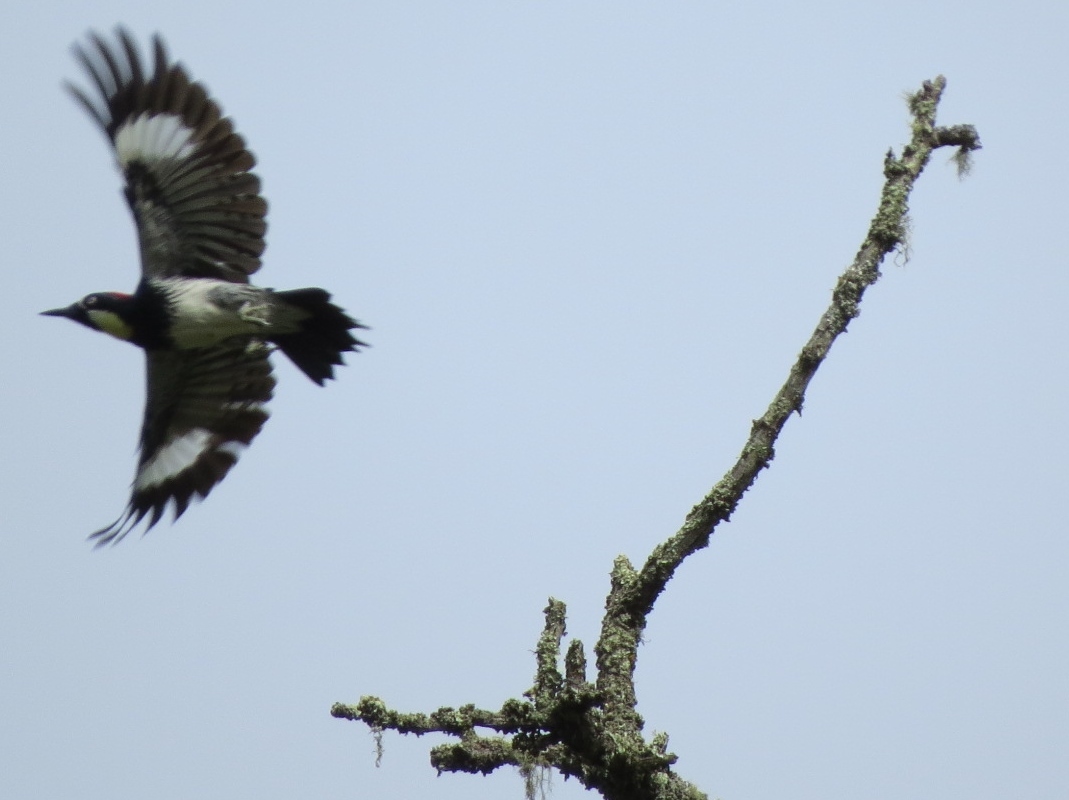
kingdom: Animalia
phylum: Chordata
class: Aves
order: Piciformes
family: Picidae
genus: Melanerpes
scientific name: Melanerpes formicivorus
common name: Acorn woodpecker
